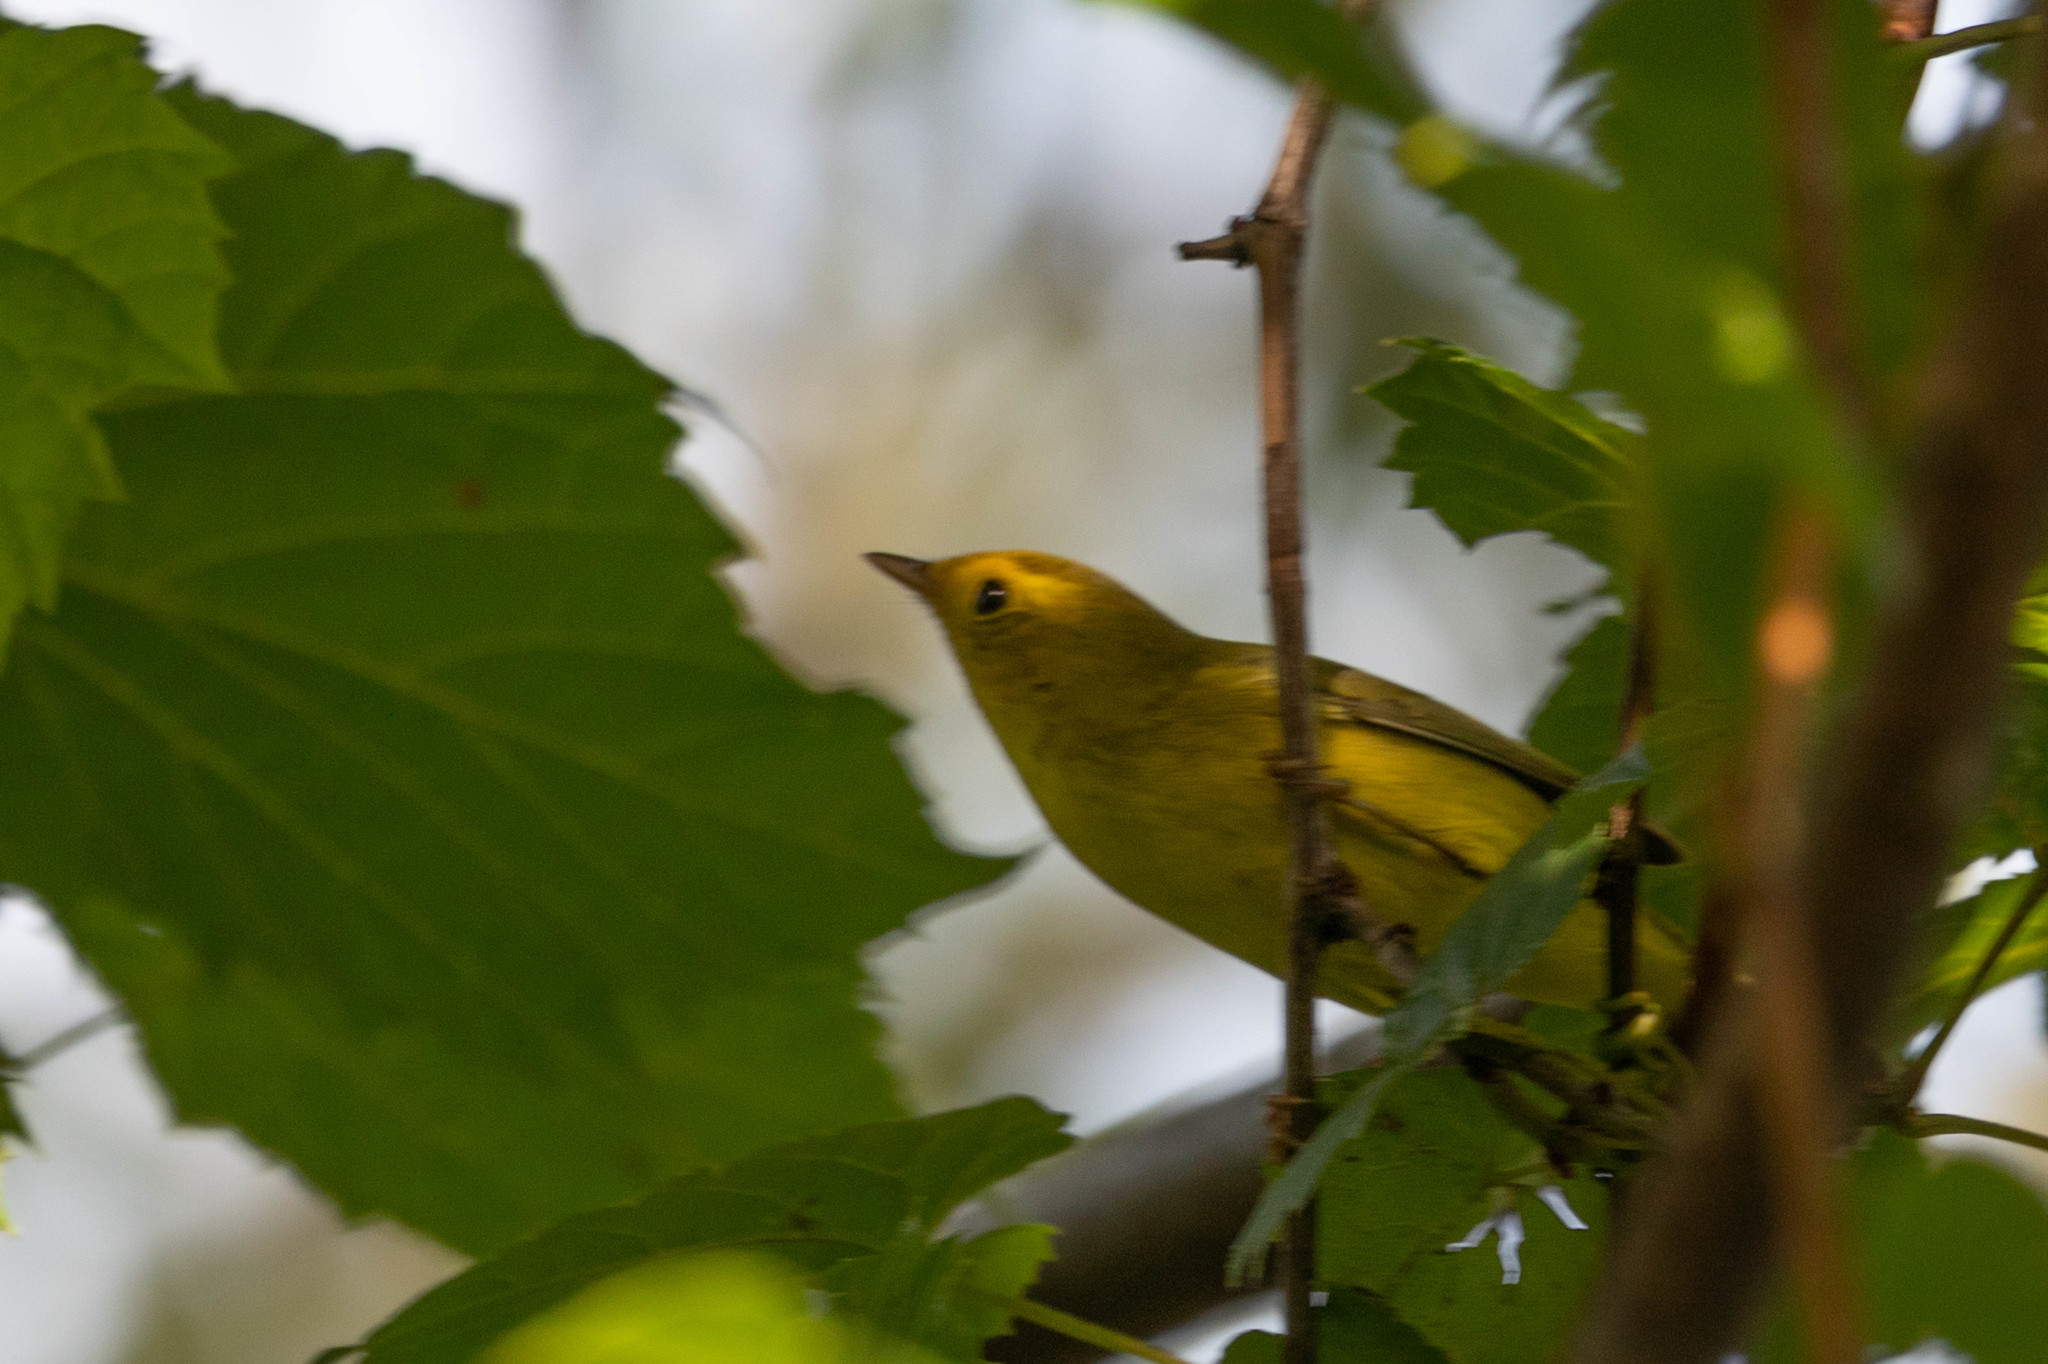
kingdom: Animalia
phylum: Chordata
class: Aves
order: Passeriformes
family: Parulidae
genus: Cardellina
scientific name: Cardellina pusilla
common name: Wilson's warbler
